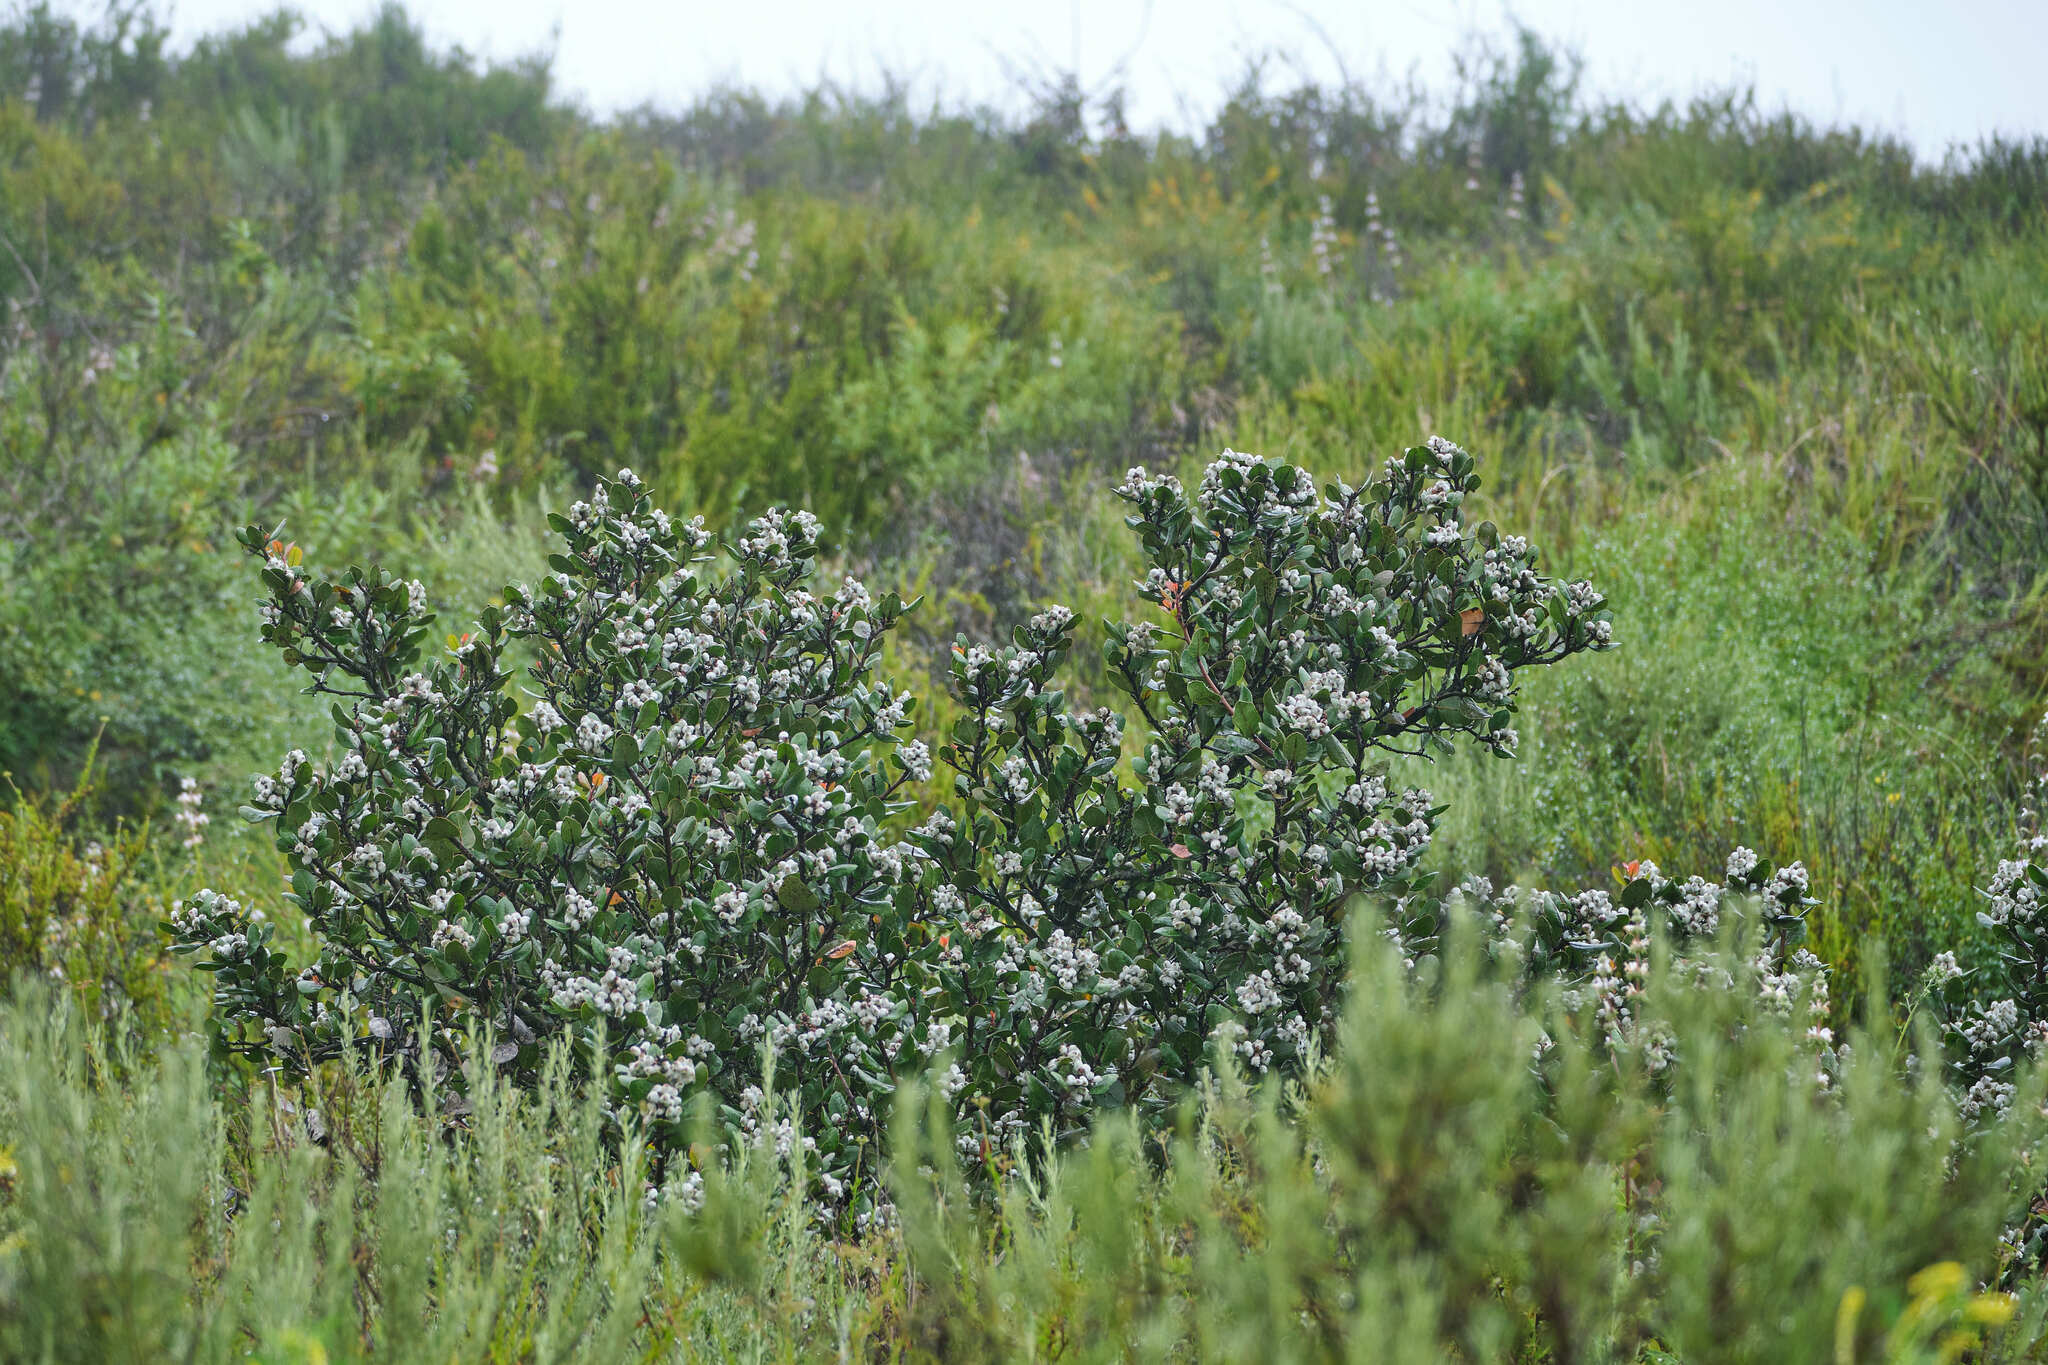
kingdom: Plantae
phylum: Tracheophyta
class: Magnoliopsida
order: Sapindales
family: Anacardiaceae
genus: Rhus
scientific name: Rhus integrifolia
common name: Lemonade sumac
